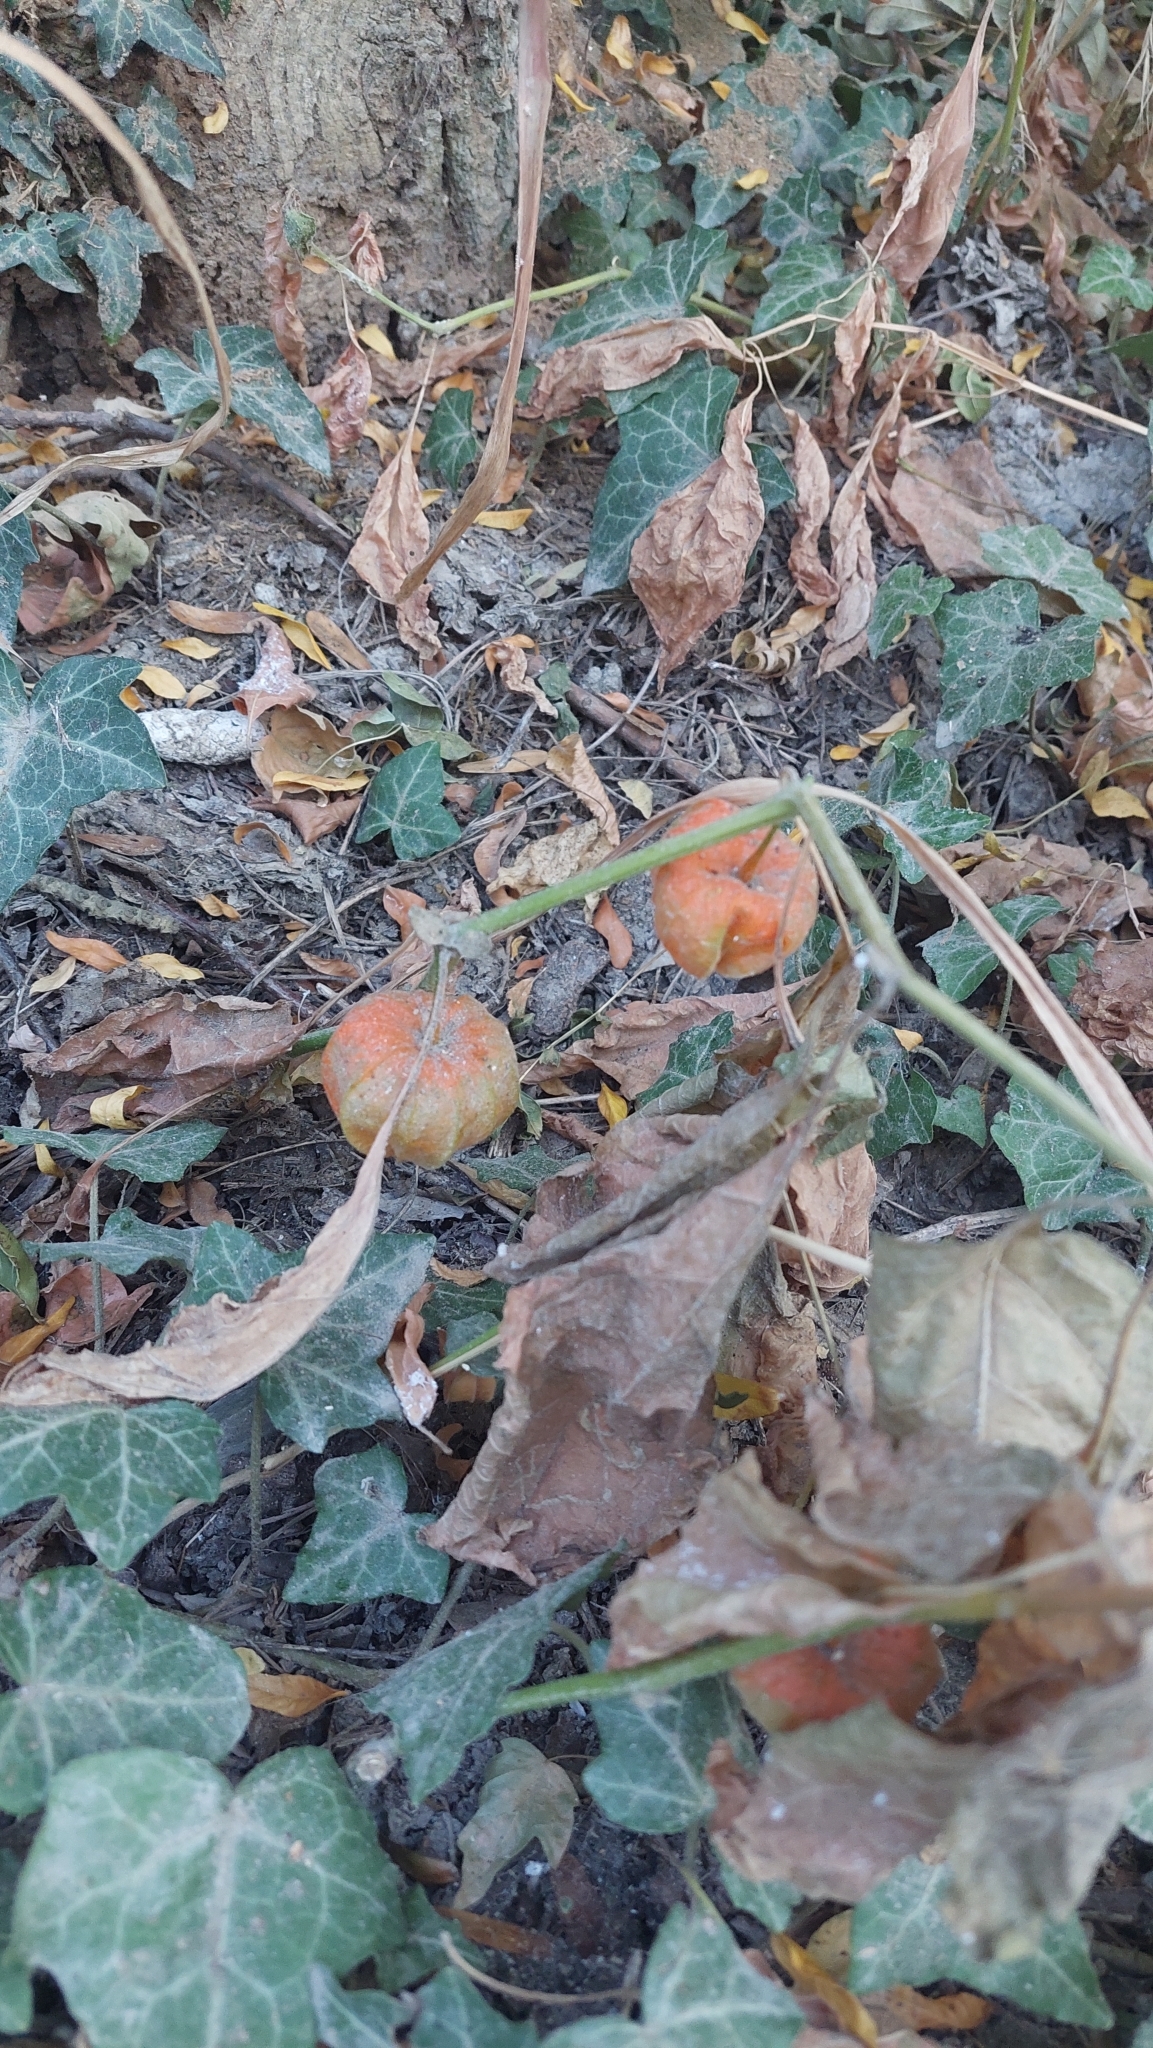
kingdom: Plantae
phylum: Tracheophyta
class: Magnoliopsida
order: Solanales
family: Solanaceae
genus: Alkekengi
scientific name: Alkekengi officinarum
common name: Japanese-lantern
